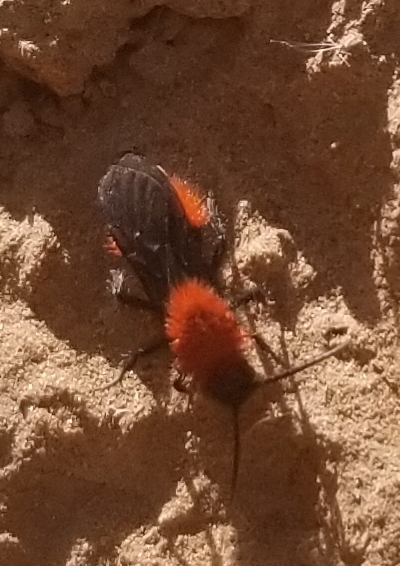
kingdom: Animalia
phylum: Arthropoda
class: Insecta
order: Hymenoptera
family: Mutillidae
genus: Dasymutilla
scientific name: Dasymutilla vestita
